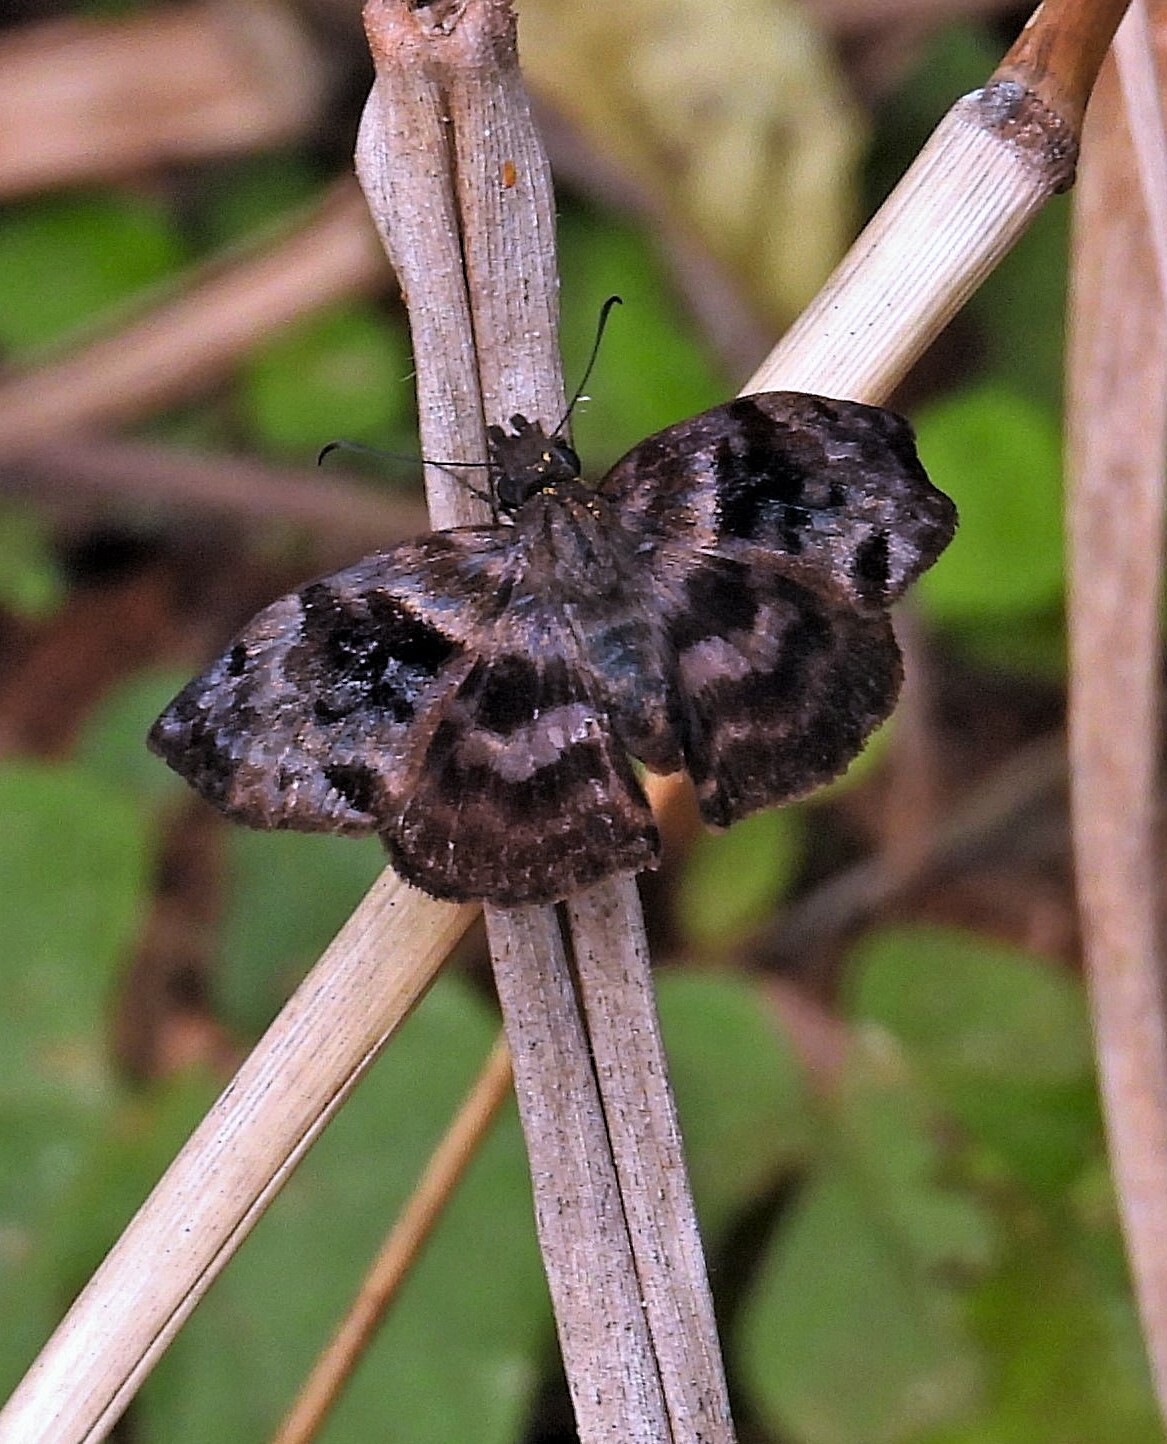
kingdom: Animalia
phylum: Arthropoda
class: Insecta
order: Lepidoptera
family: Hesperiidae
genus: Ebrietas
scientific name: Ebrietas anacreon
